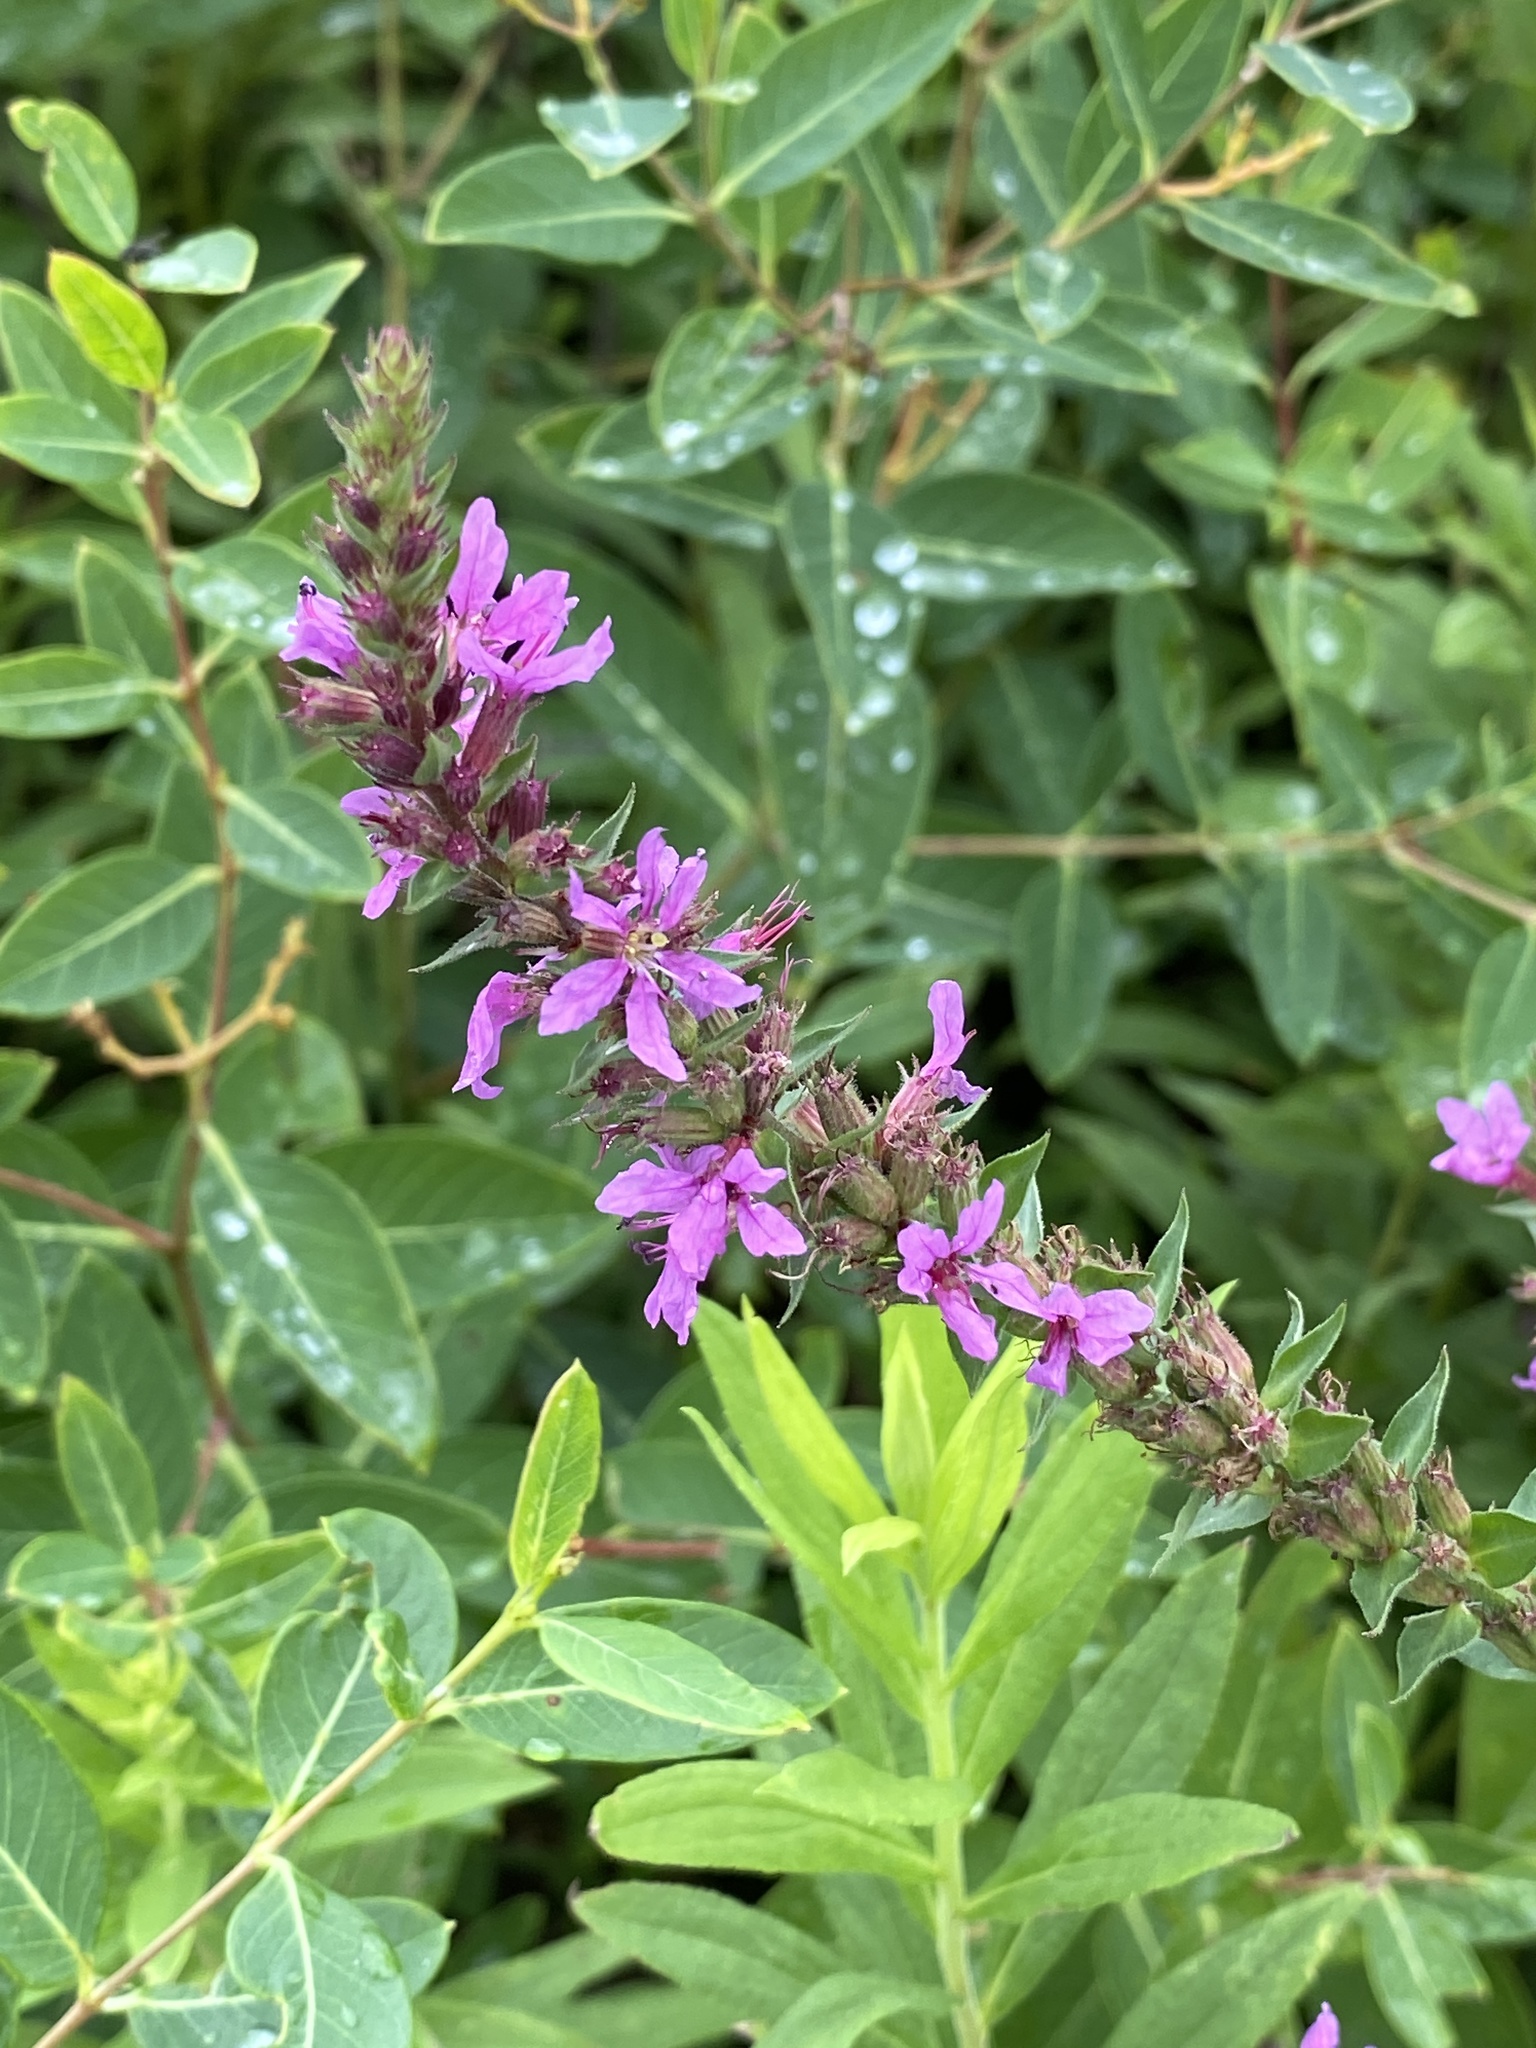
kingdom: Plantae
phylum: Tracheophyta
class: Magnoliopsida
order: Myrtales
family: Lythraceae
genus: Lythrum
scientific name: Lythrum salicaria
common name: Purple loosestrife
